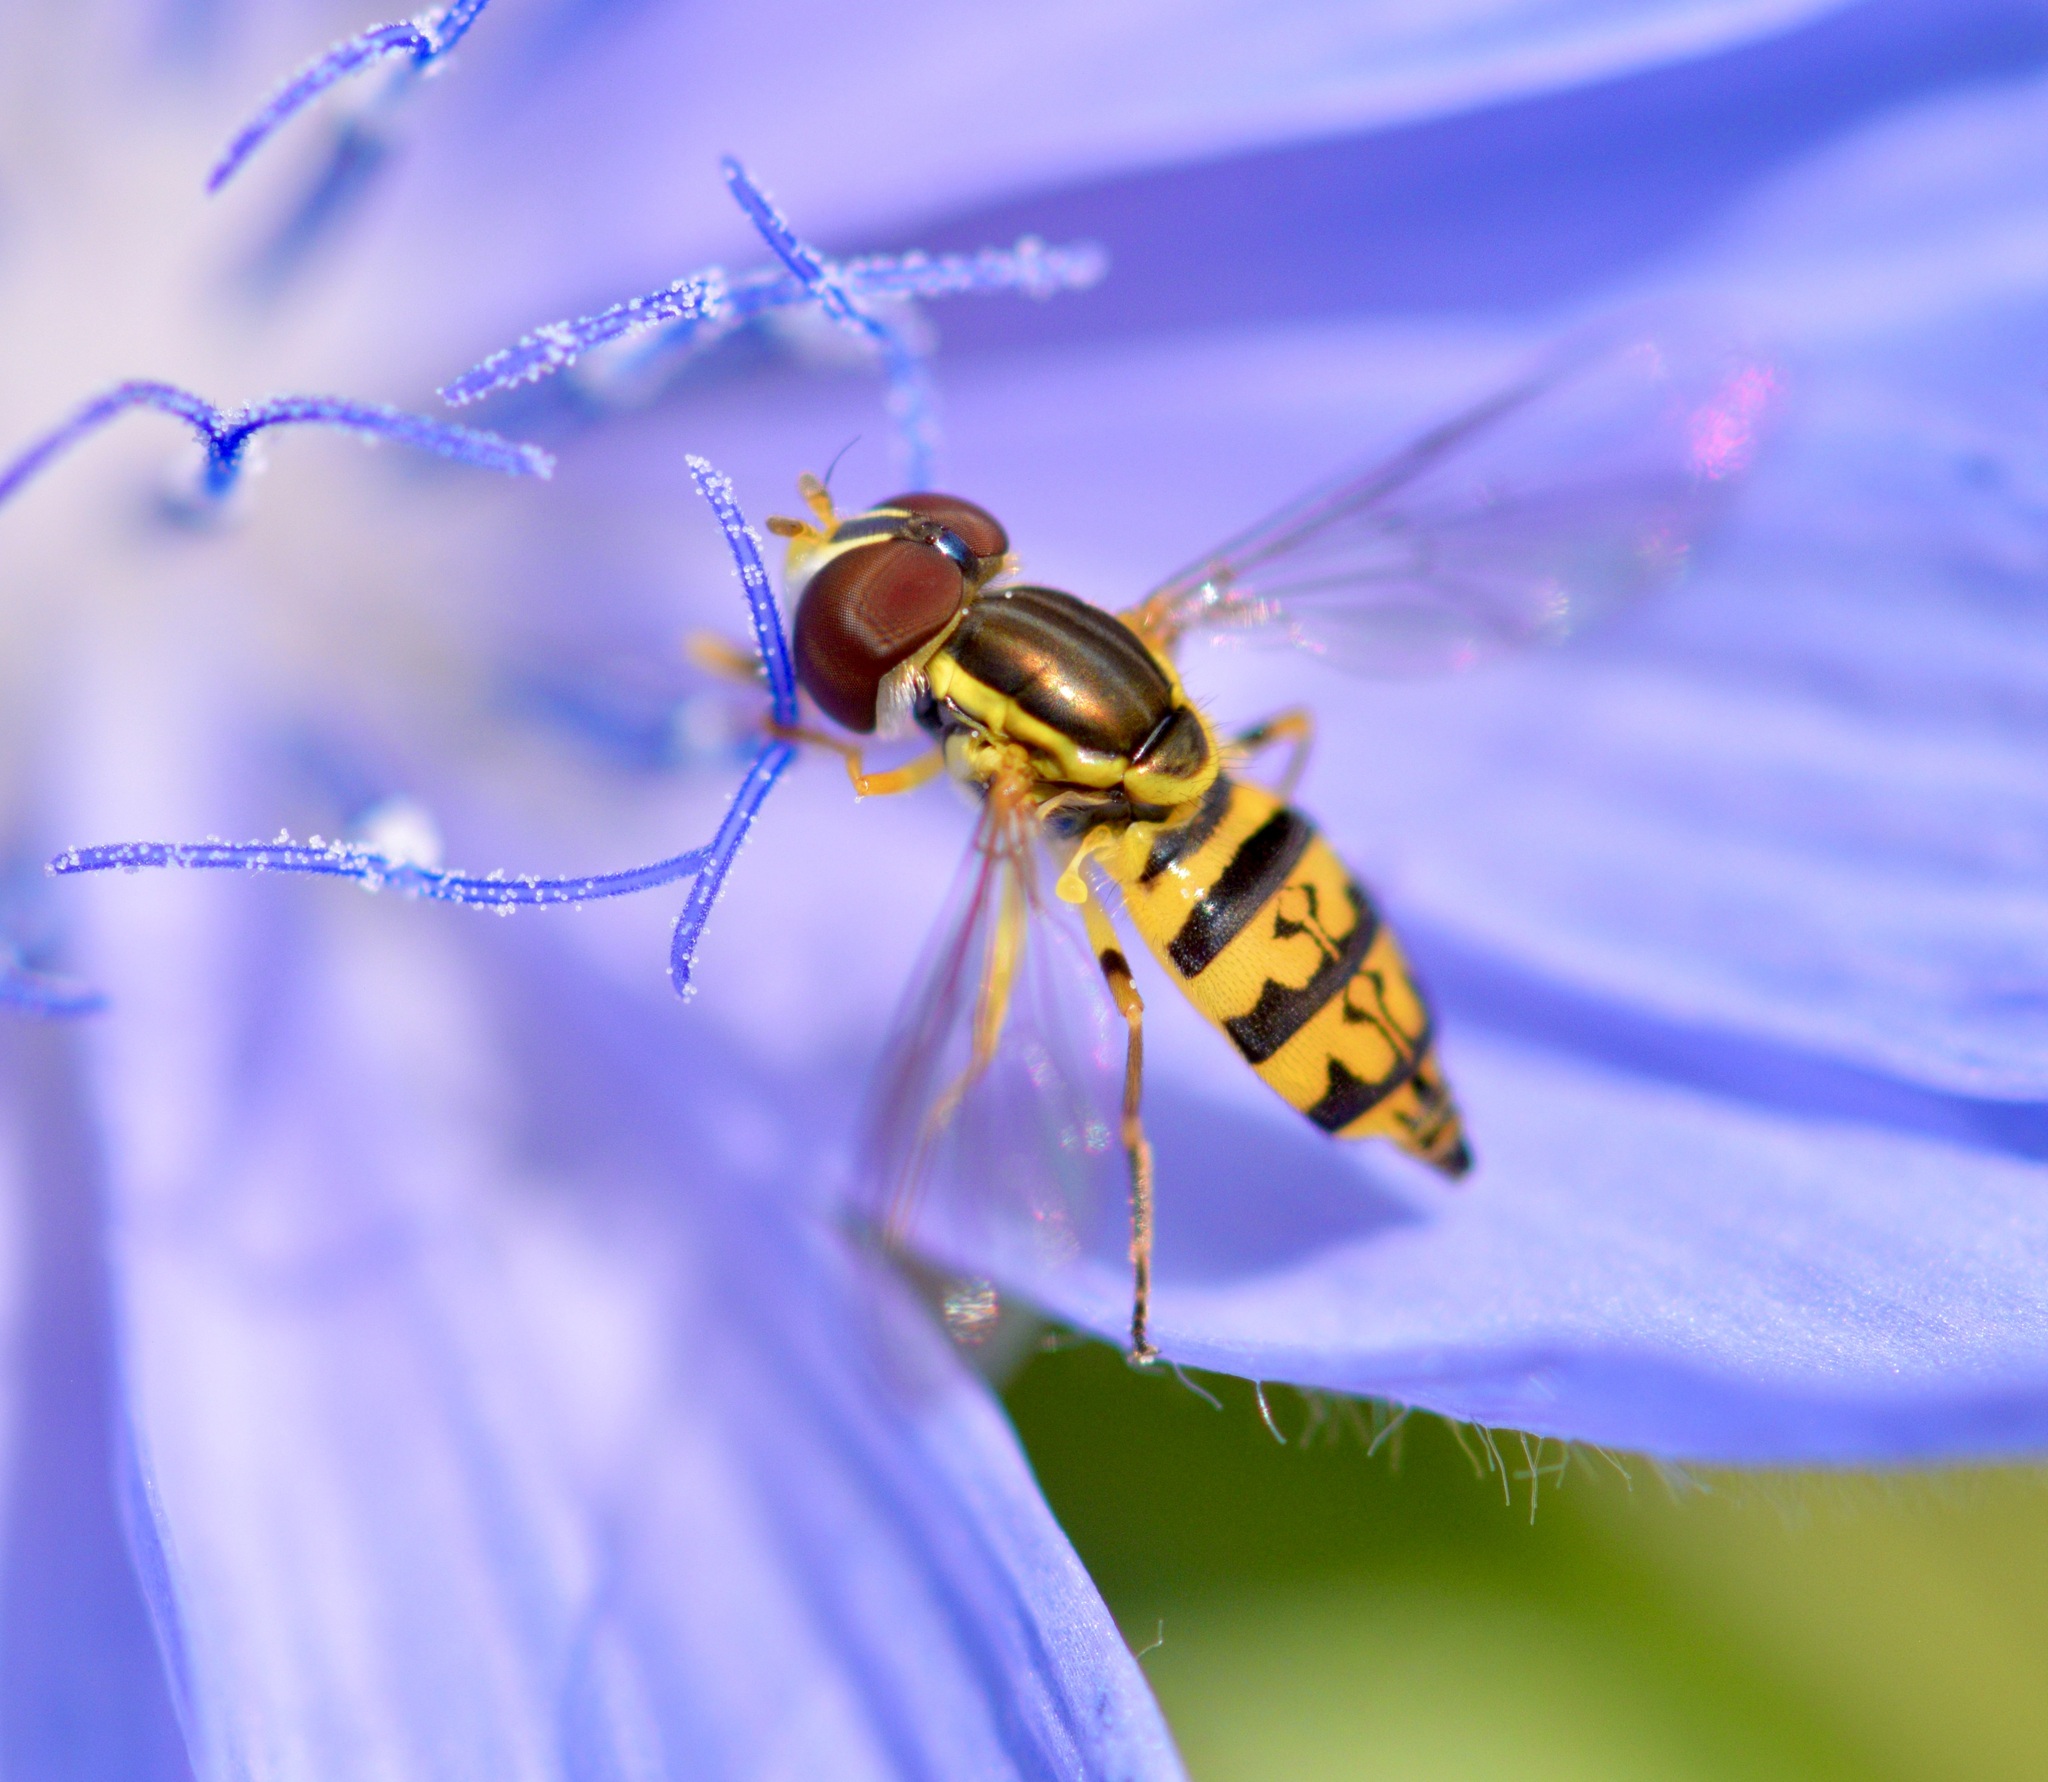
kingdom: Animalia
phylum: Arthropoda
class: Insecta
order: Diptera
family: Syrphidae
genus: Toxomerus
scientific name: Toxomerus geminatus
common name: Eastern calligrapher
